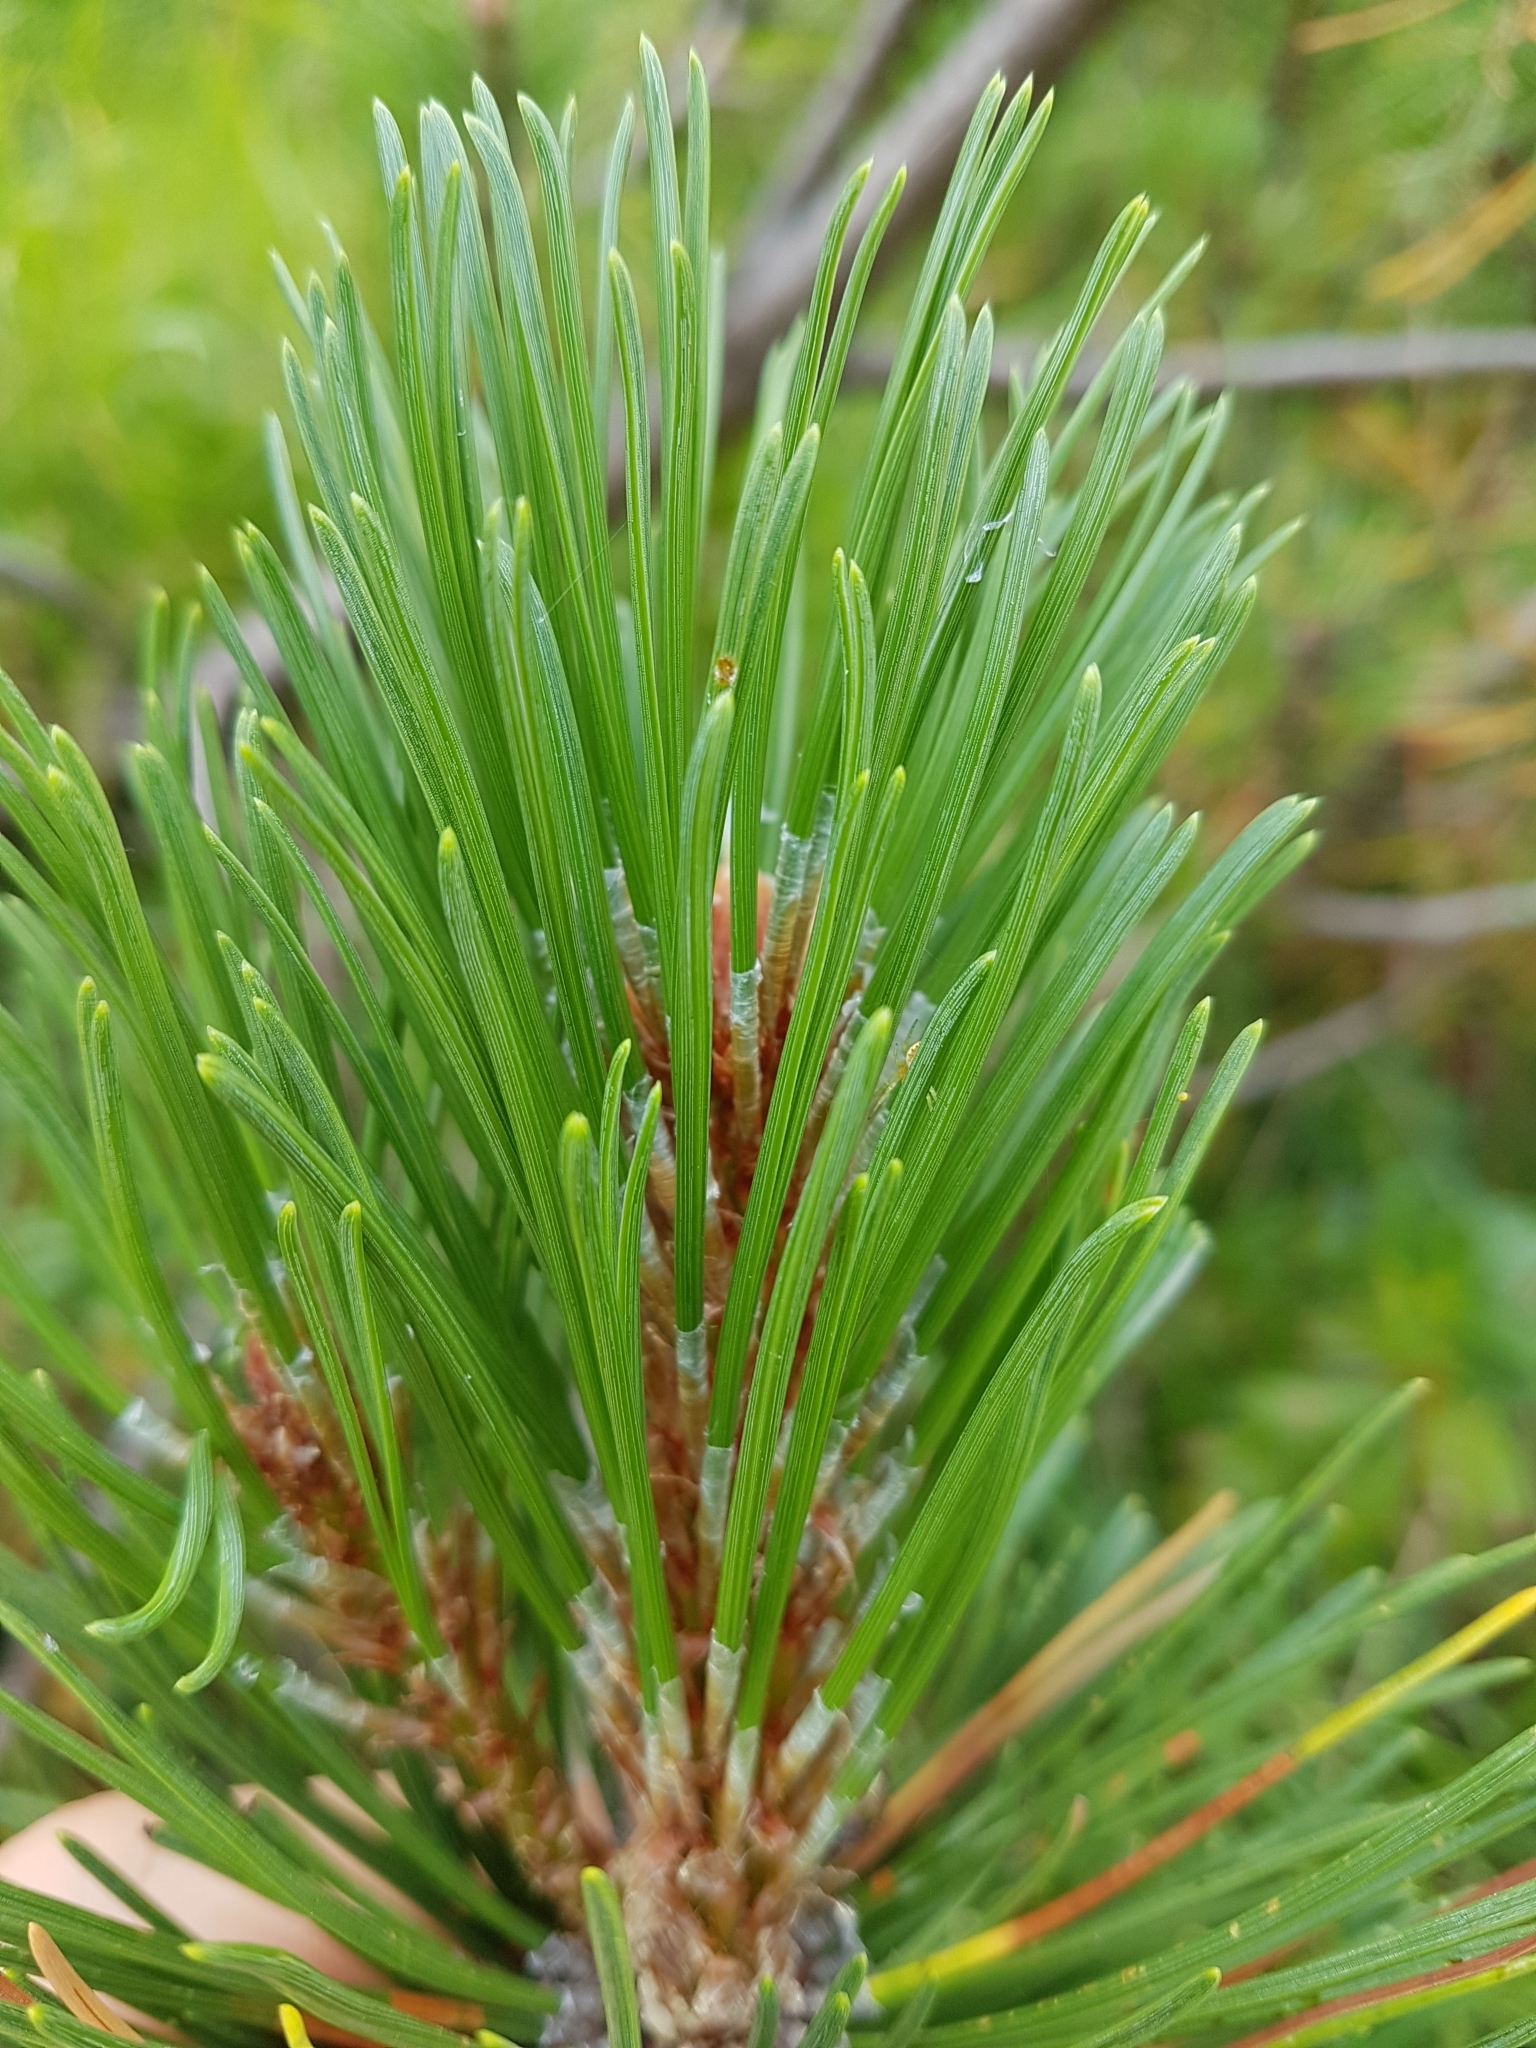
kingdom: Plantae
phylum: Tracheophyta
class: Pinopsida
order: Pinales
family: Pinaceae
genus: Pinus
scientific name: Pinus mugo
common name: Mugo pine
